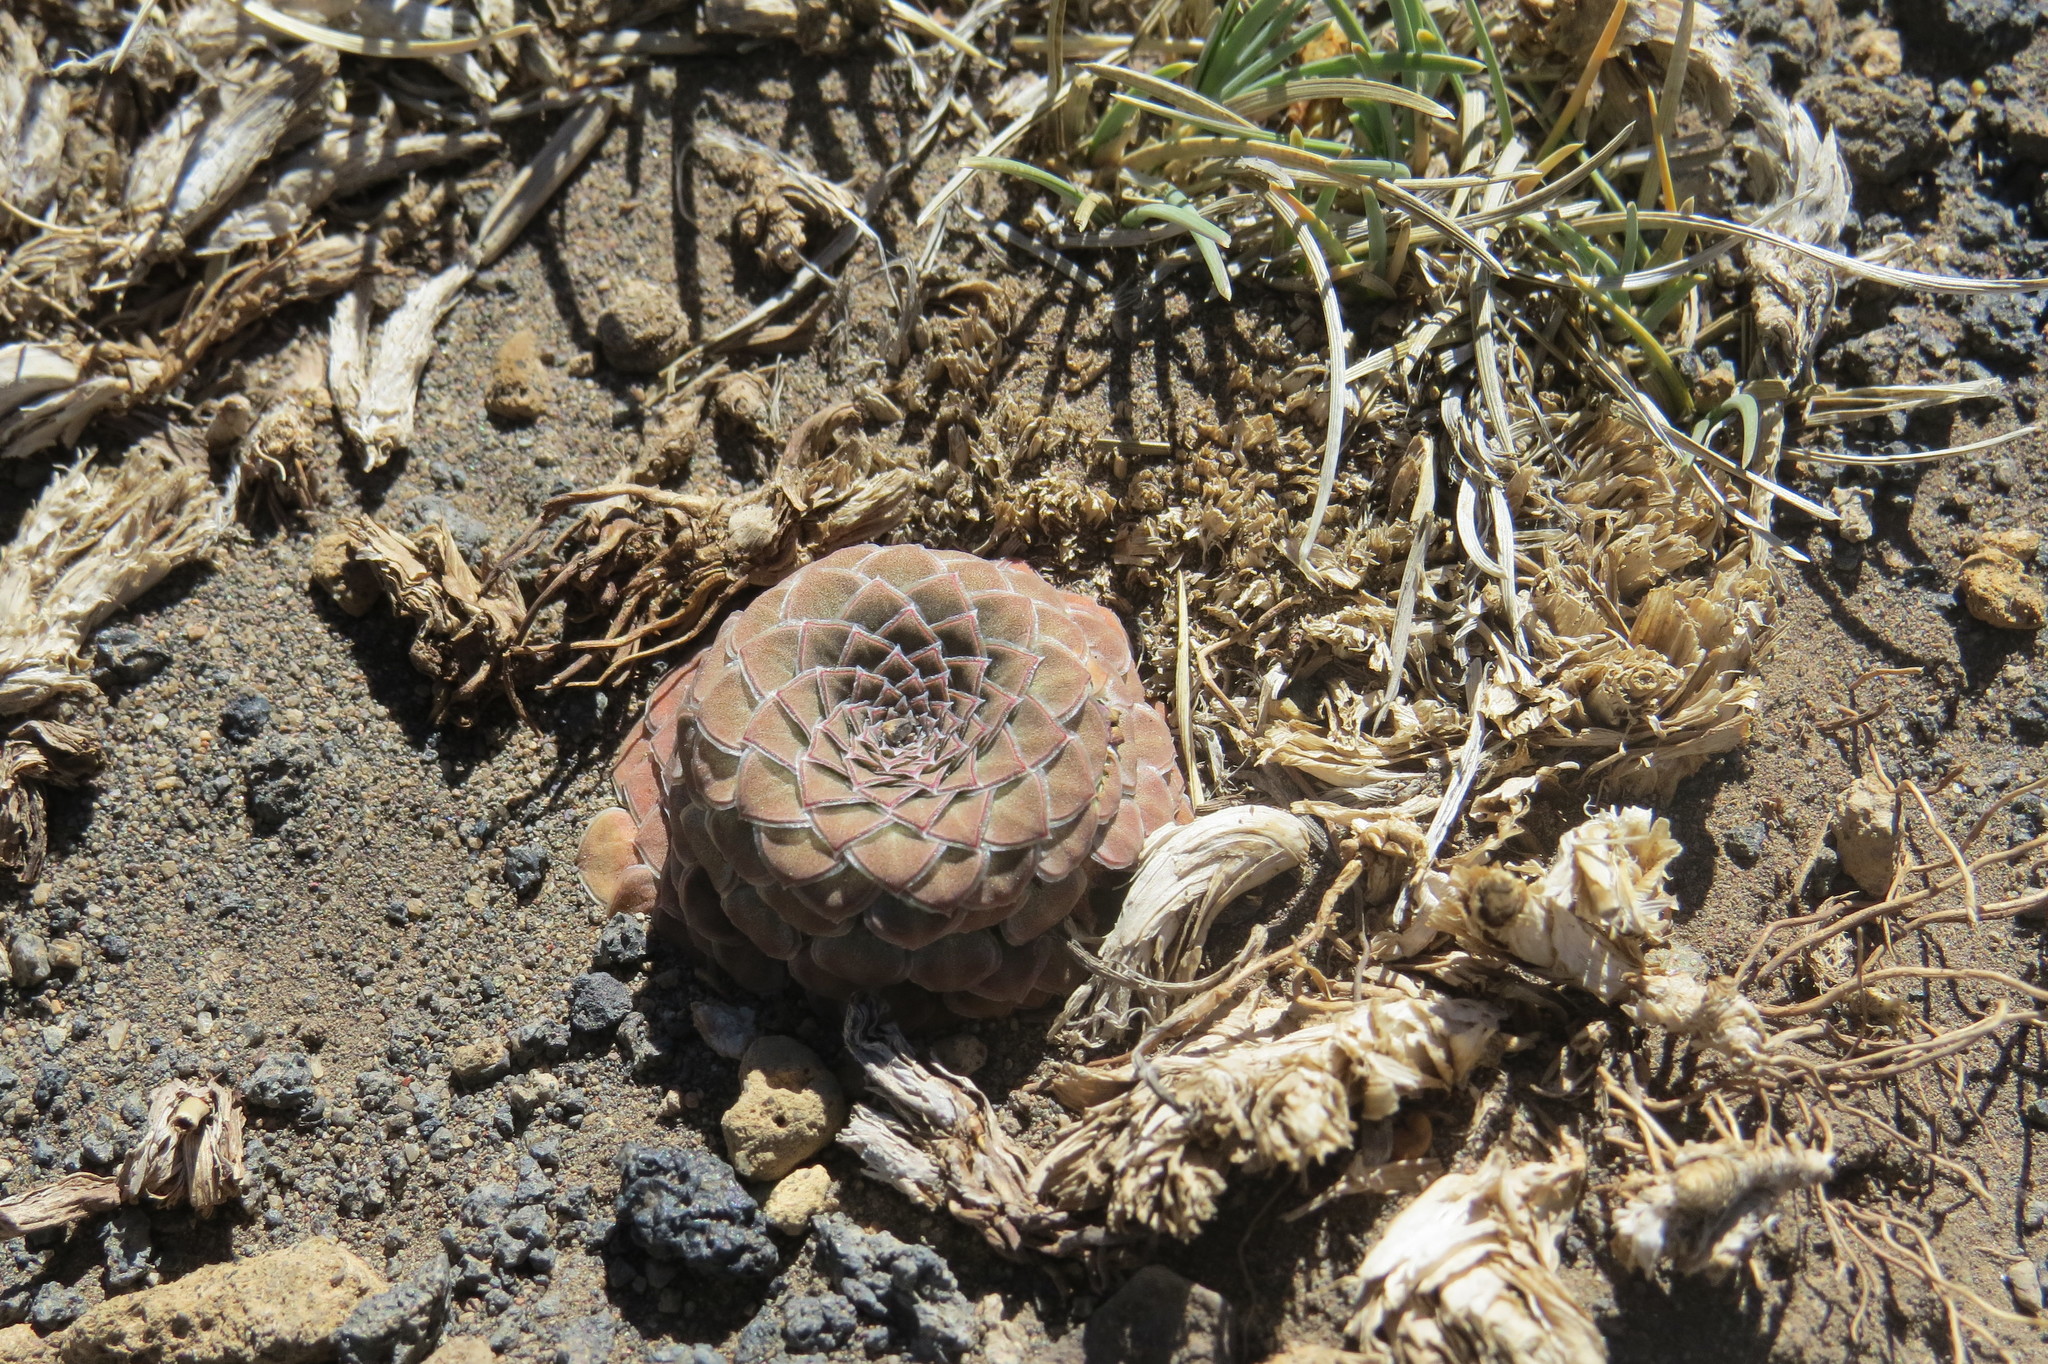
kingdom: Plantae
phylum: Tracheophyta
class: Magnoliopsida
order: Malpighiales
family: Violaceae
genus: Viola
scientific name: Viola atropurpurea
